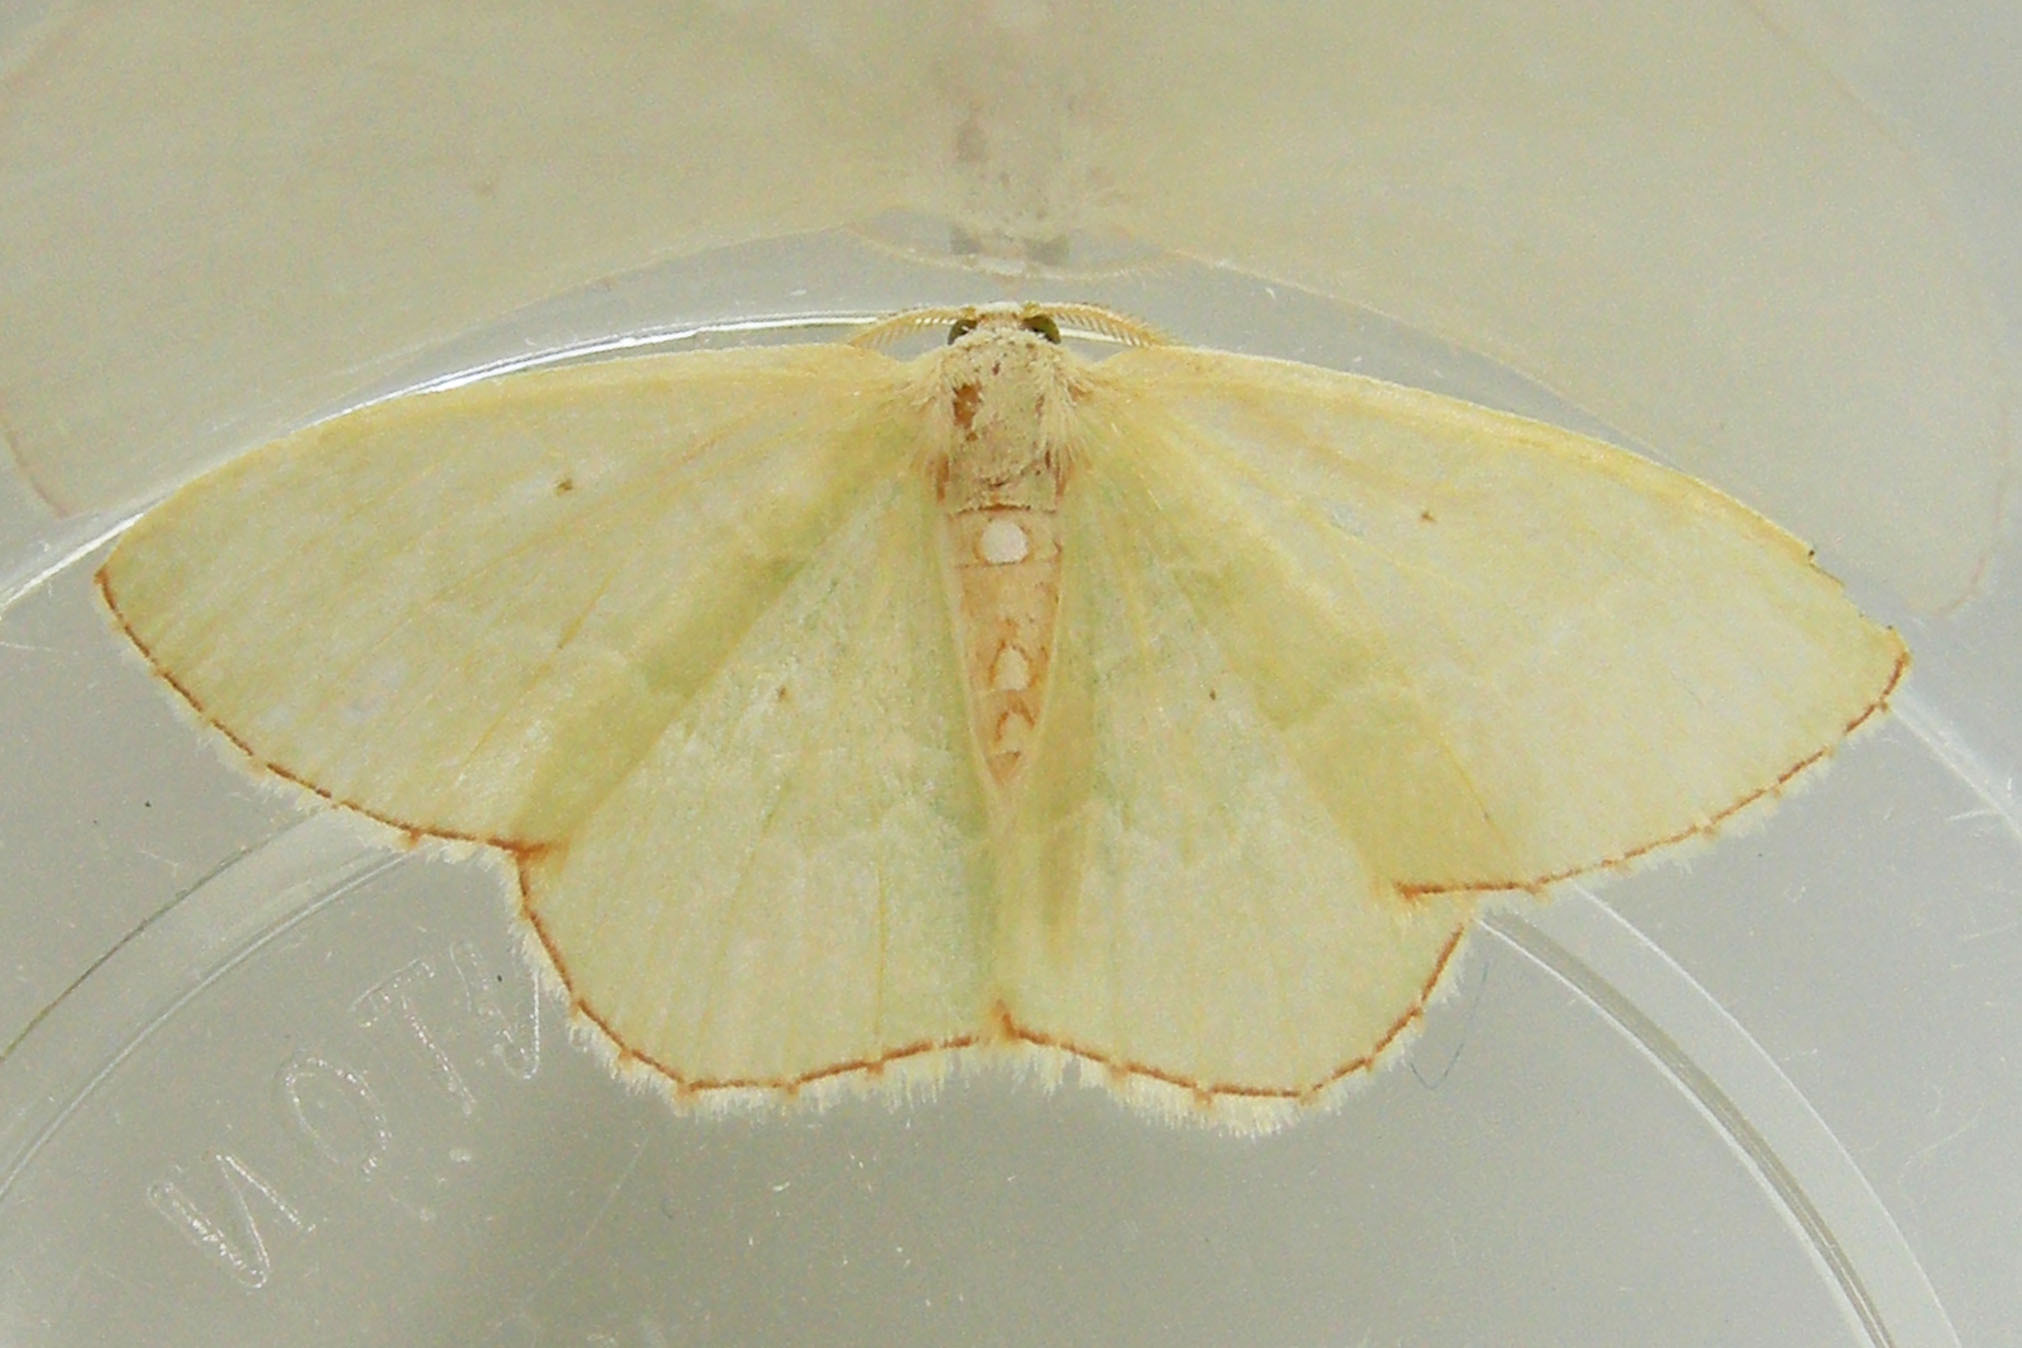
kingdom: Animalia
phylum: Arthropoda
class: Insecta
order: Lepidoptera
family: Geometridae
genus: Nemoria
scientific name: Nemoria lixaria
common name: Red-bordered emerald
